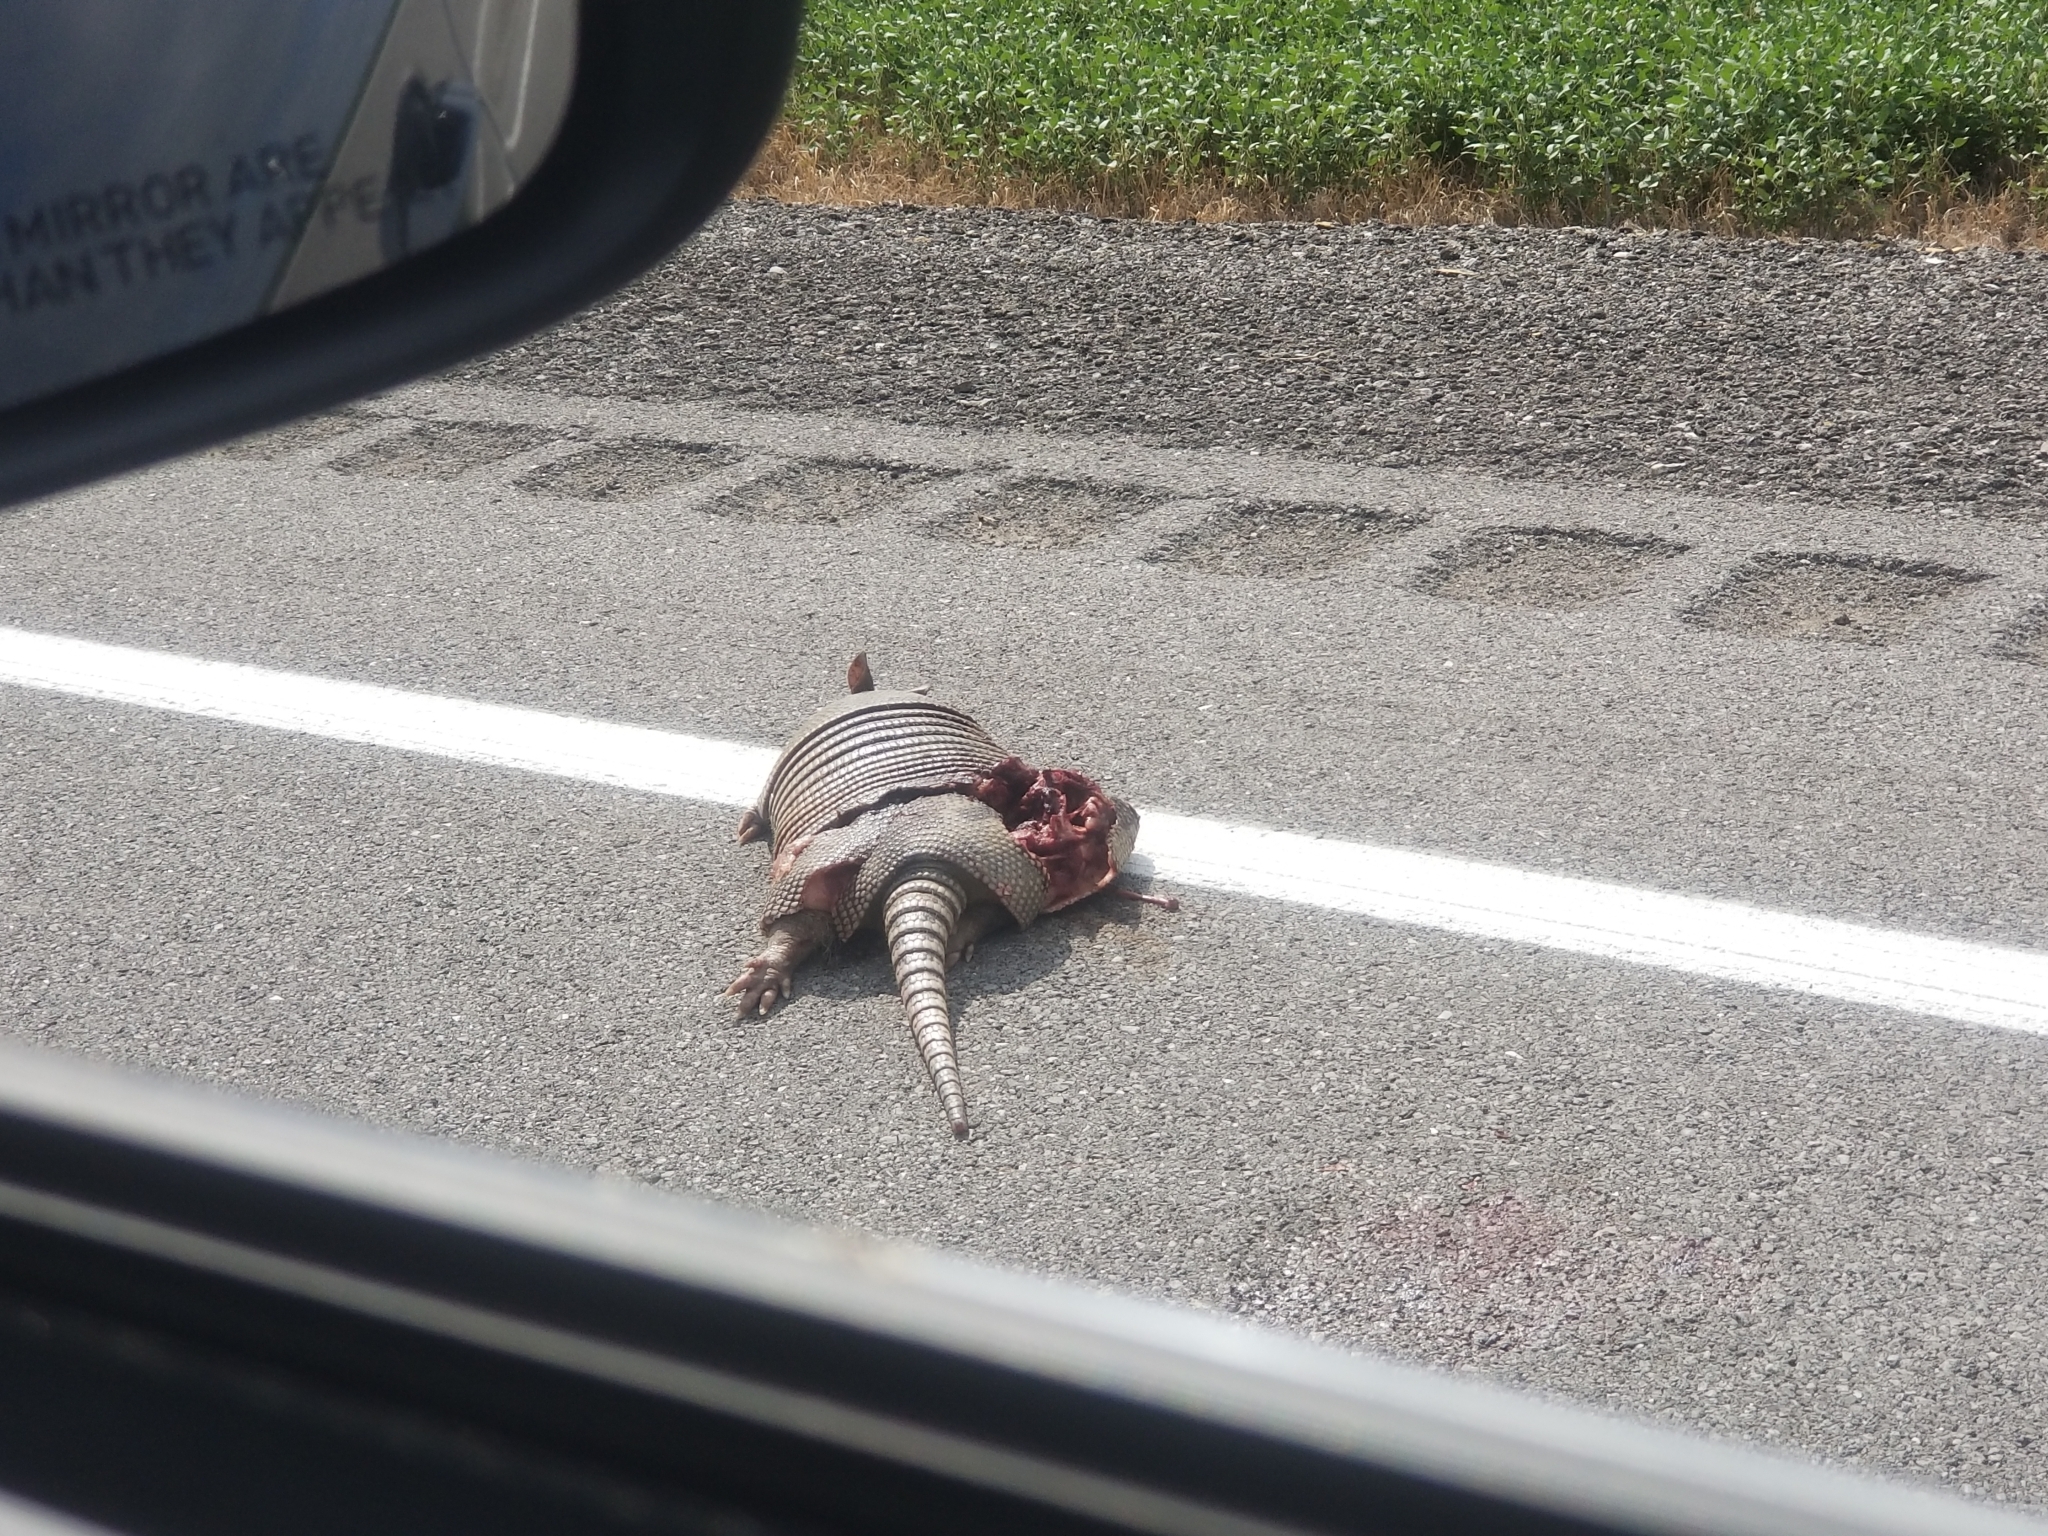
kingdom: Animalia
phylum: Chordata
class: Mammalia
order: Cingulata
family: Dasypodidae
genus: Dasypus
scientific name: Dasypus novemcinctus
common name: Nine-banded armadillo
